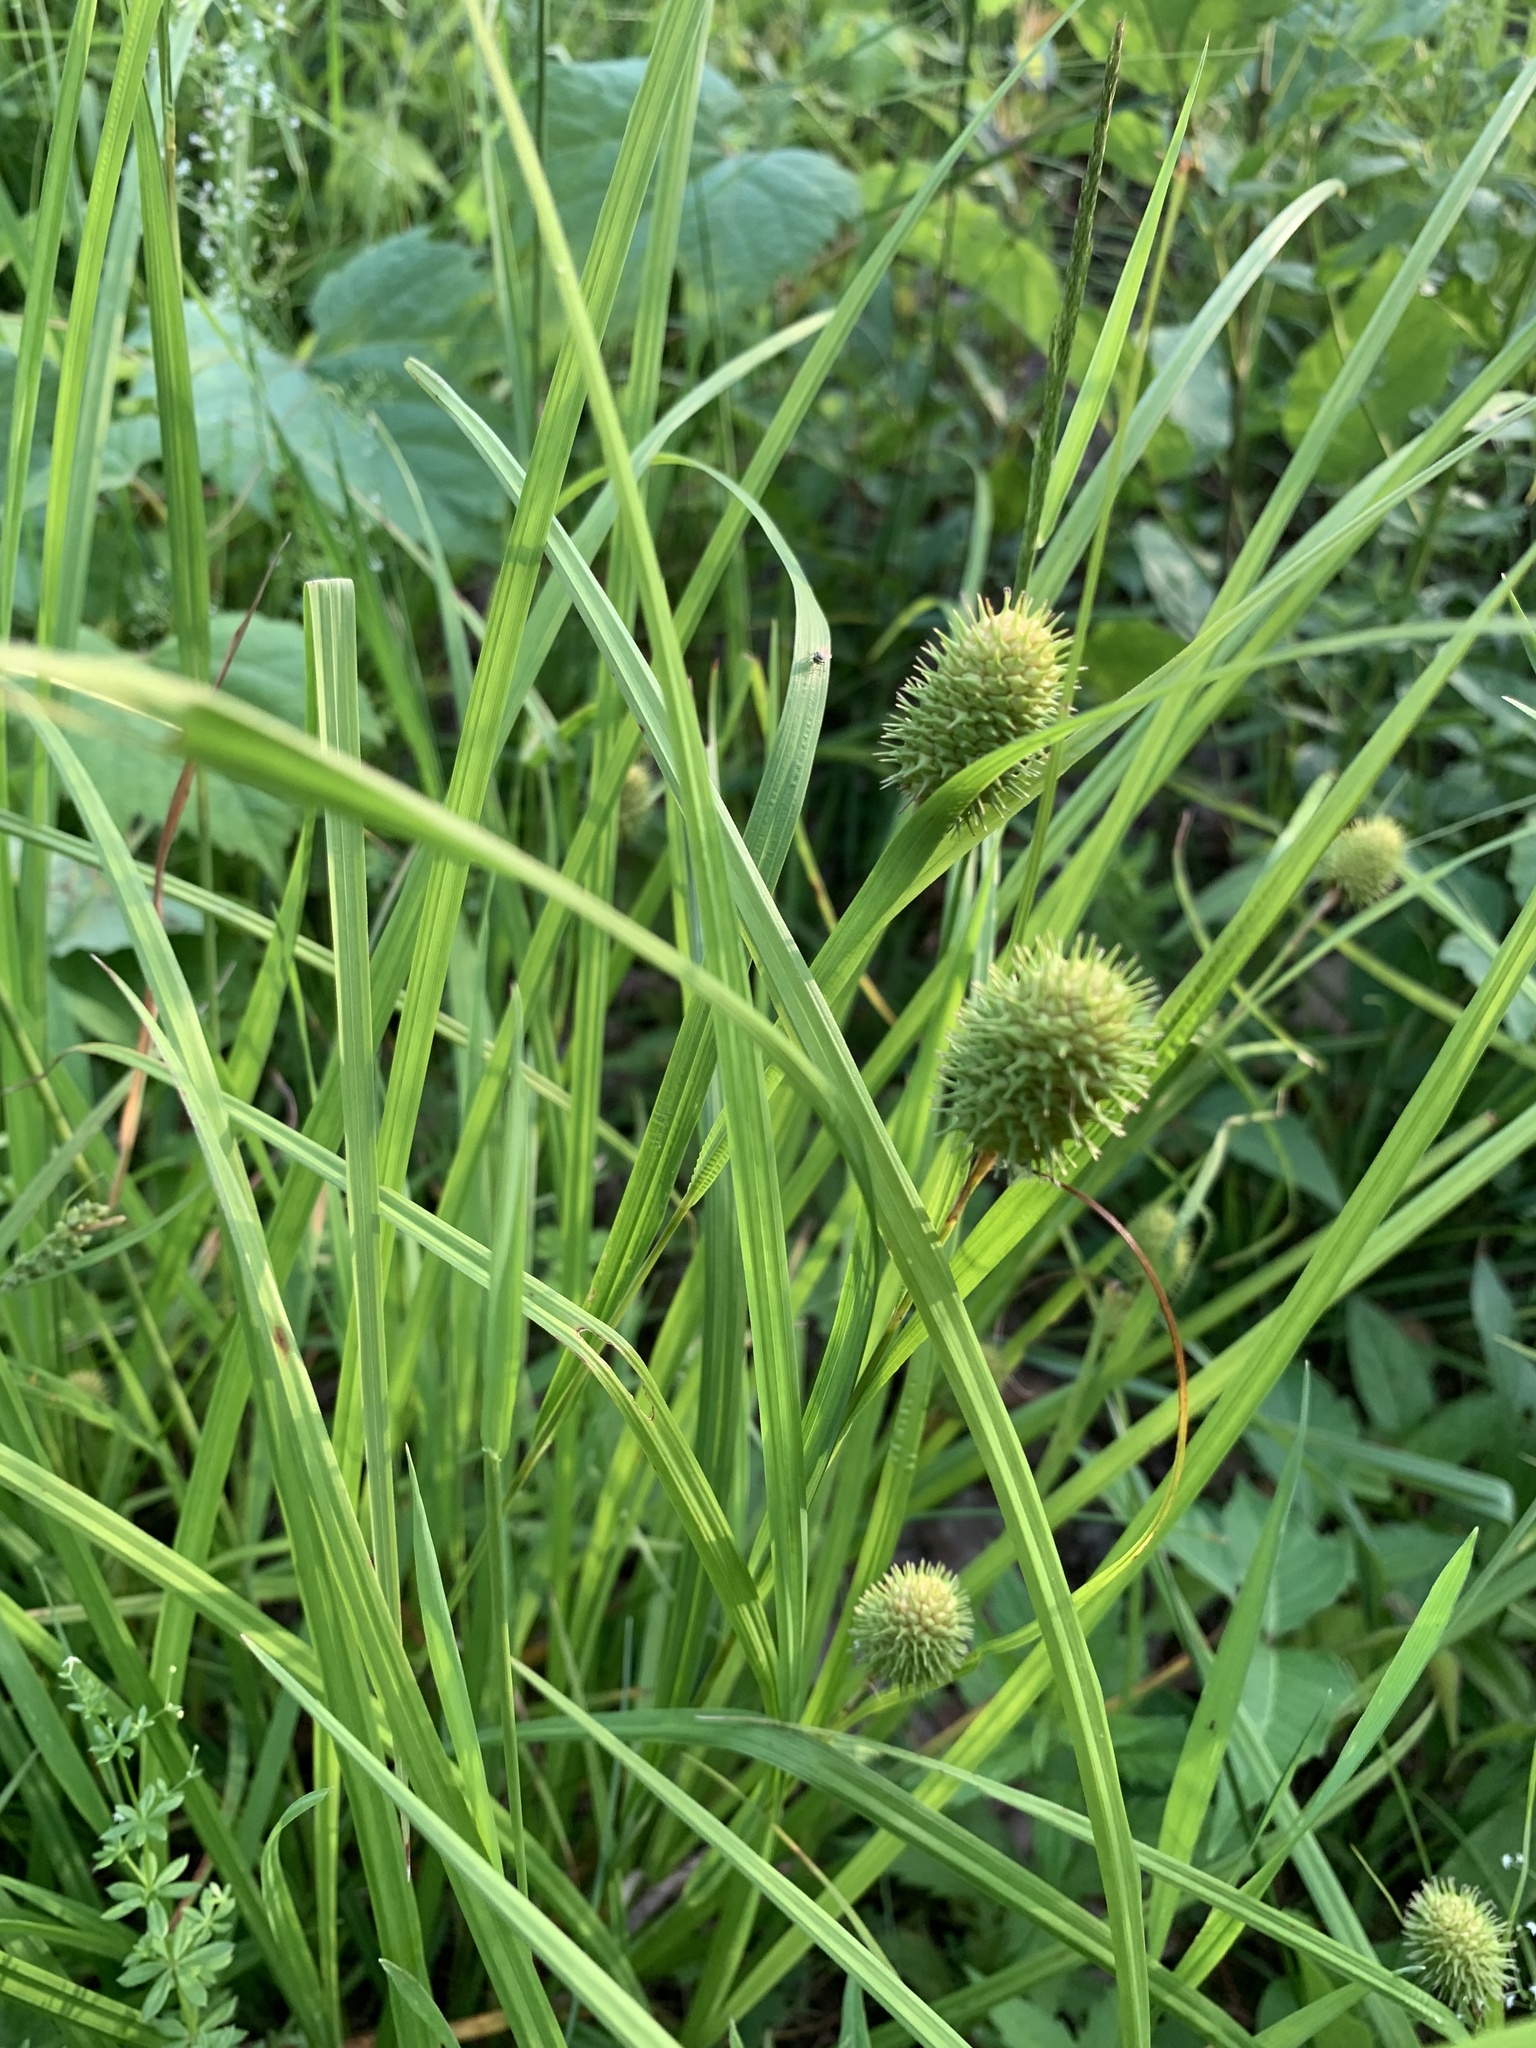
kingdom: Plantae
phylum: Tracheophyta
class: Liliopsida
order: Poales
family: Cyperaceae
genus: Carex
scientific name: Carex squarrosa
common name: Narrow-leaved cattail sedge
